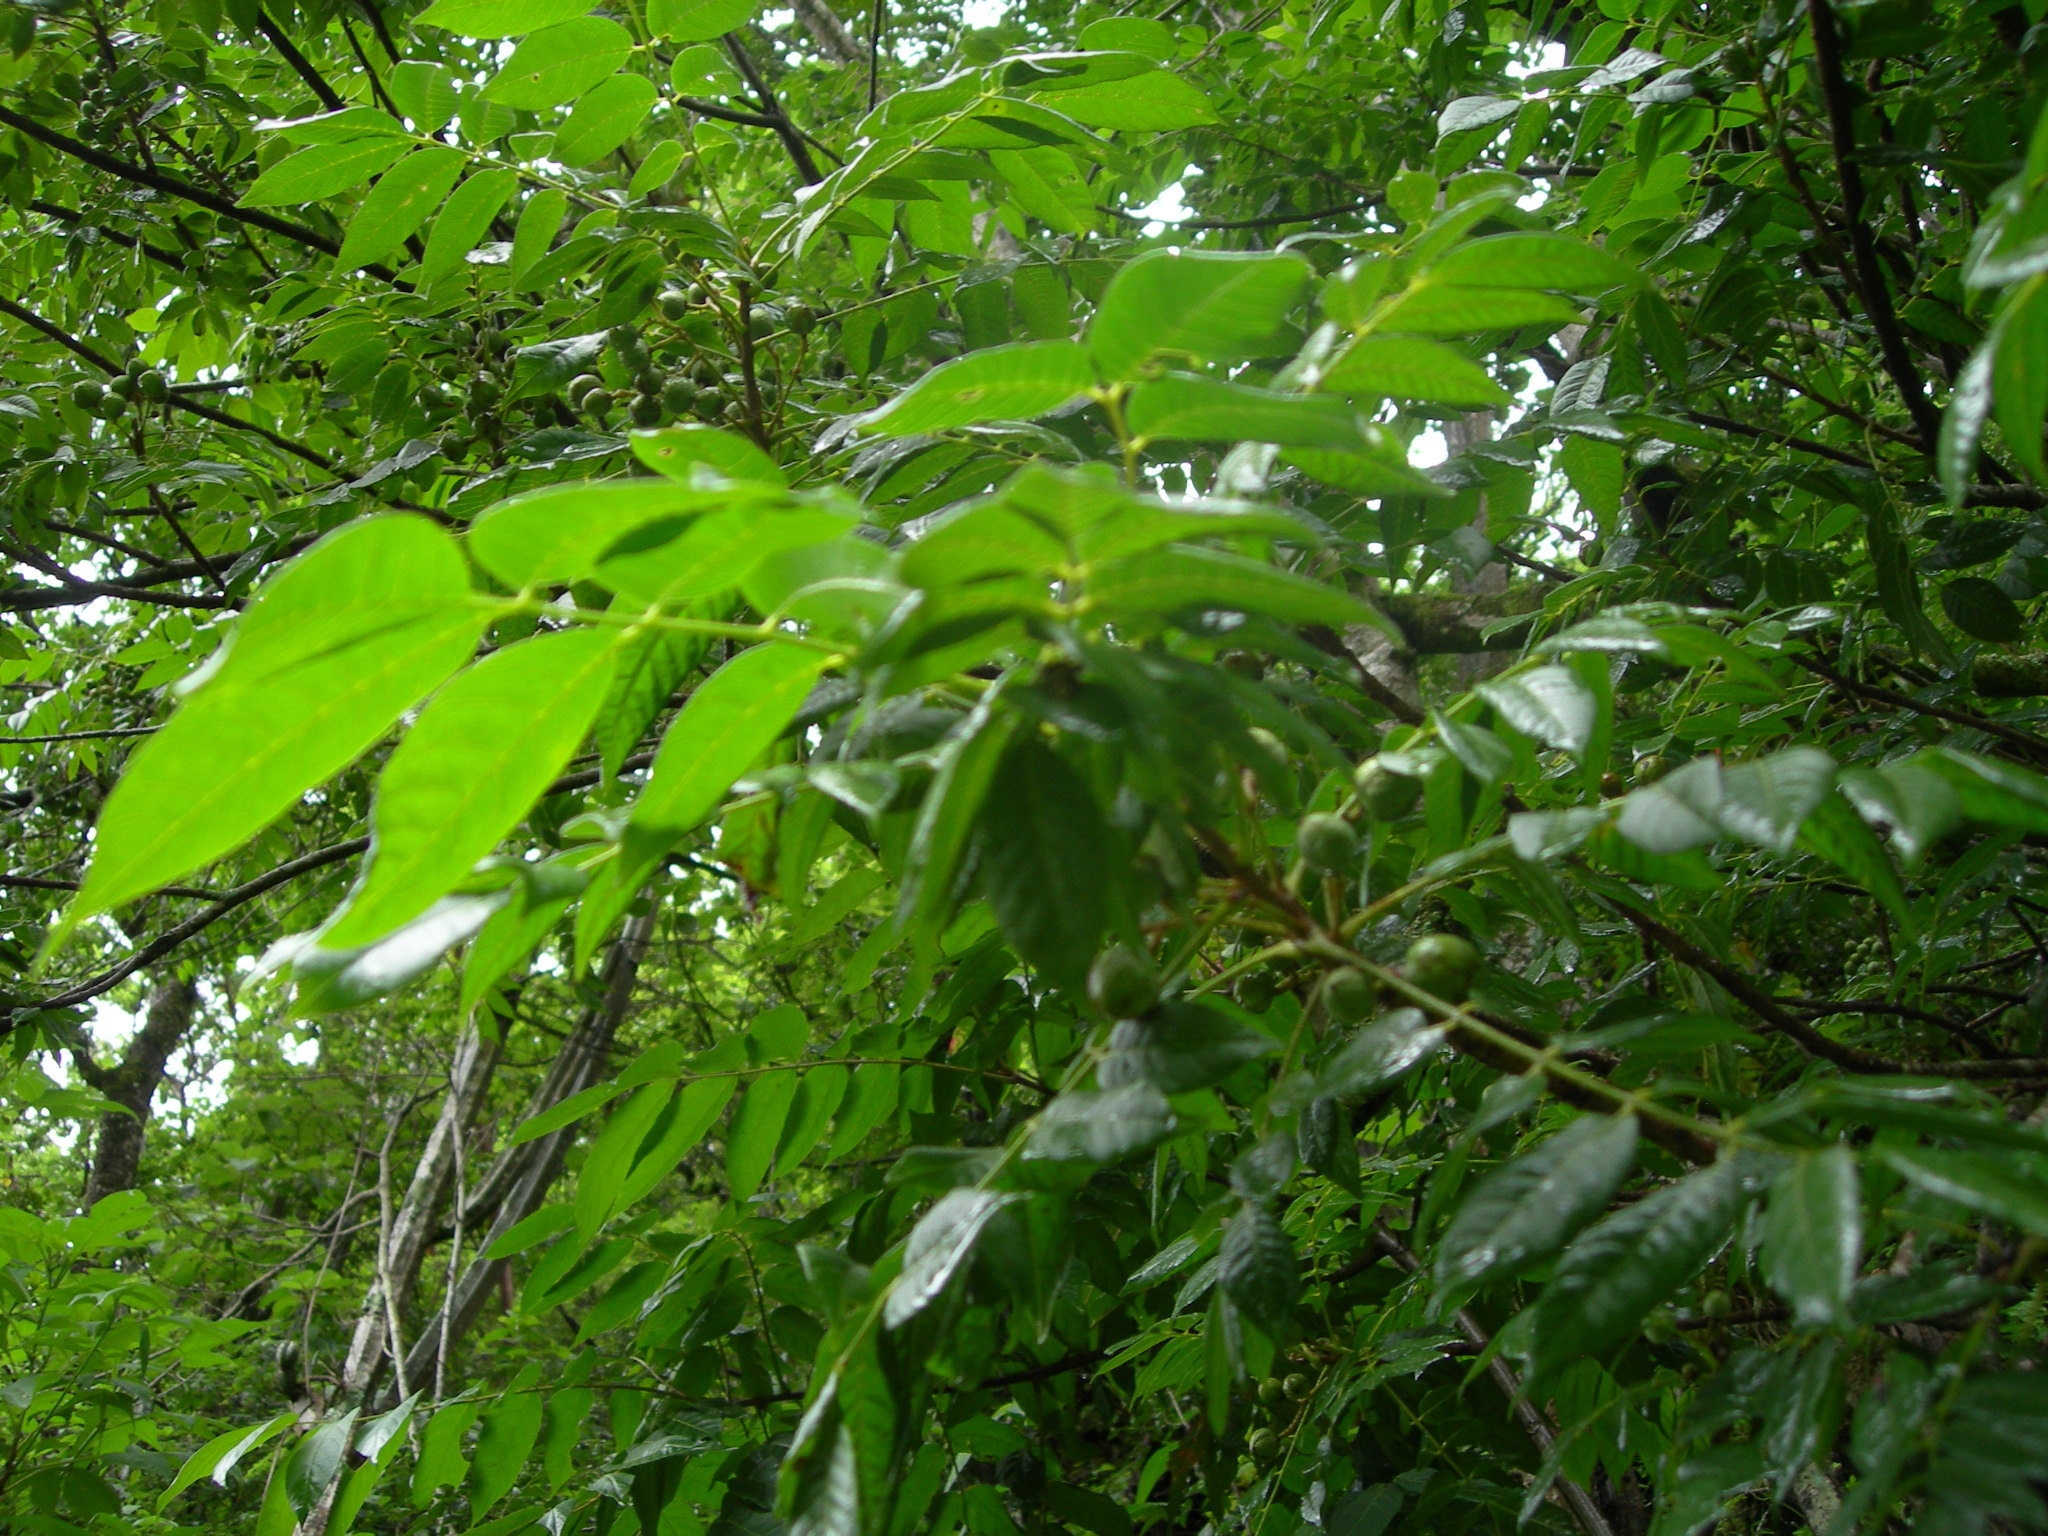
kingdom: Plantae
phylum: Tracheophyta
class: Magnoliopsida
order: Sapindales
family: Meliaceae
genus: Trichilia
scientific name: Trichilia martiana
